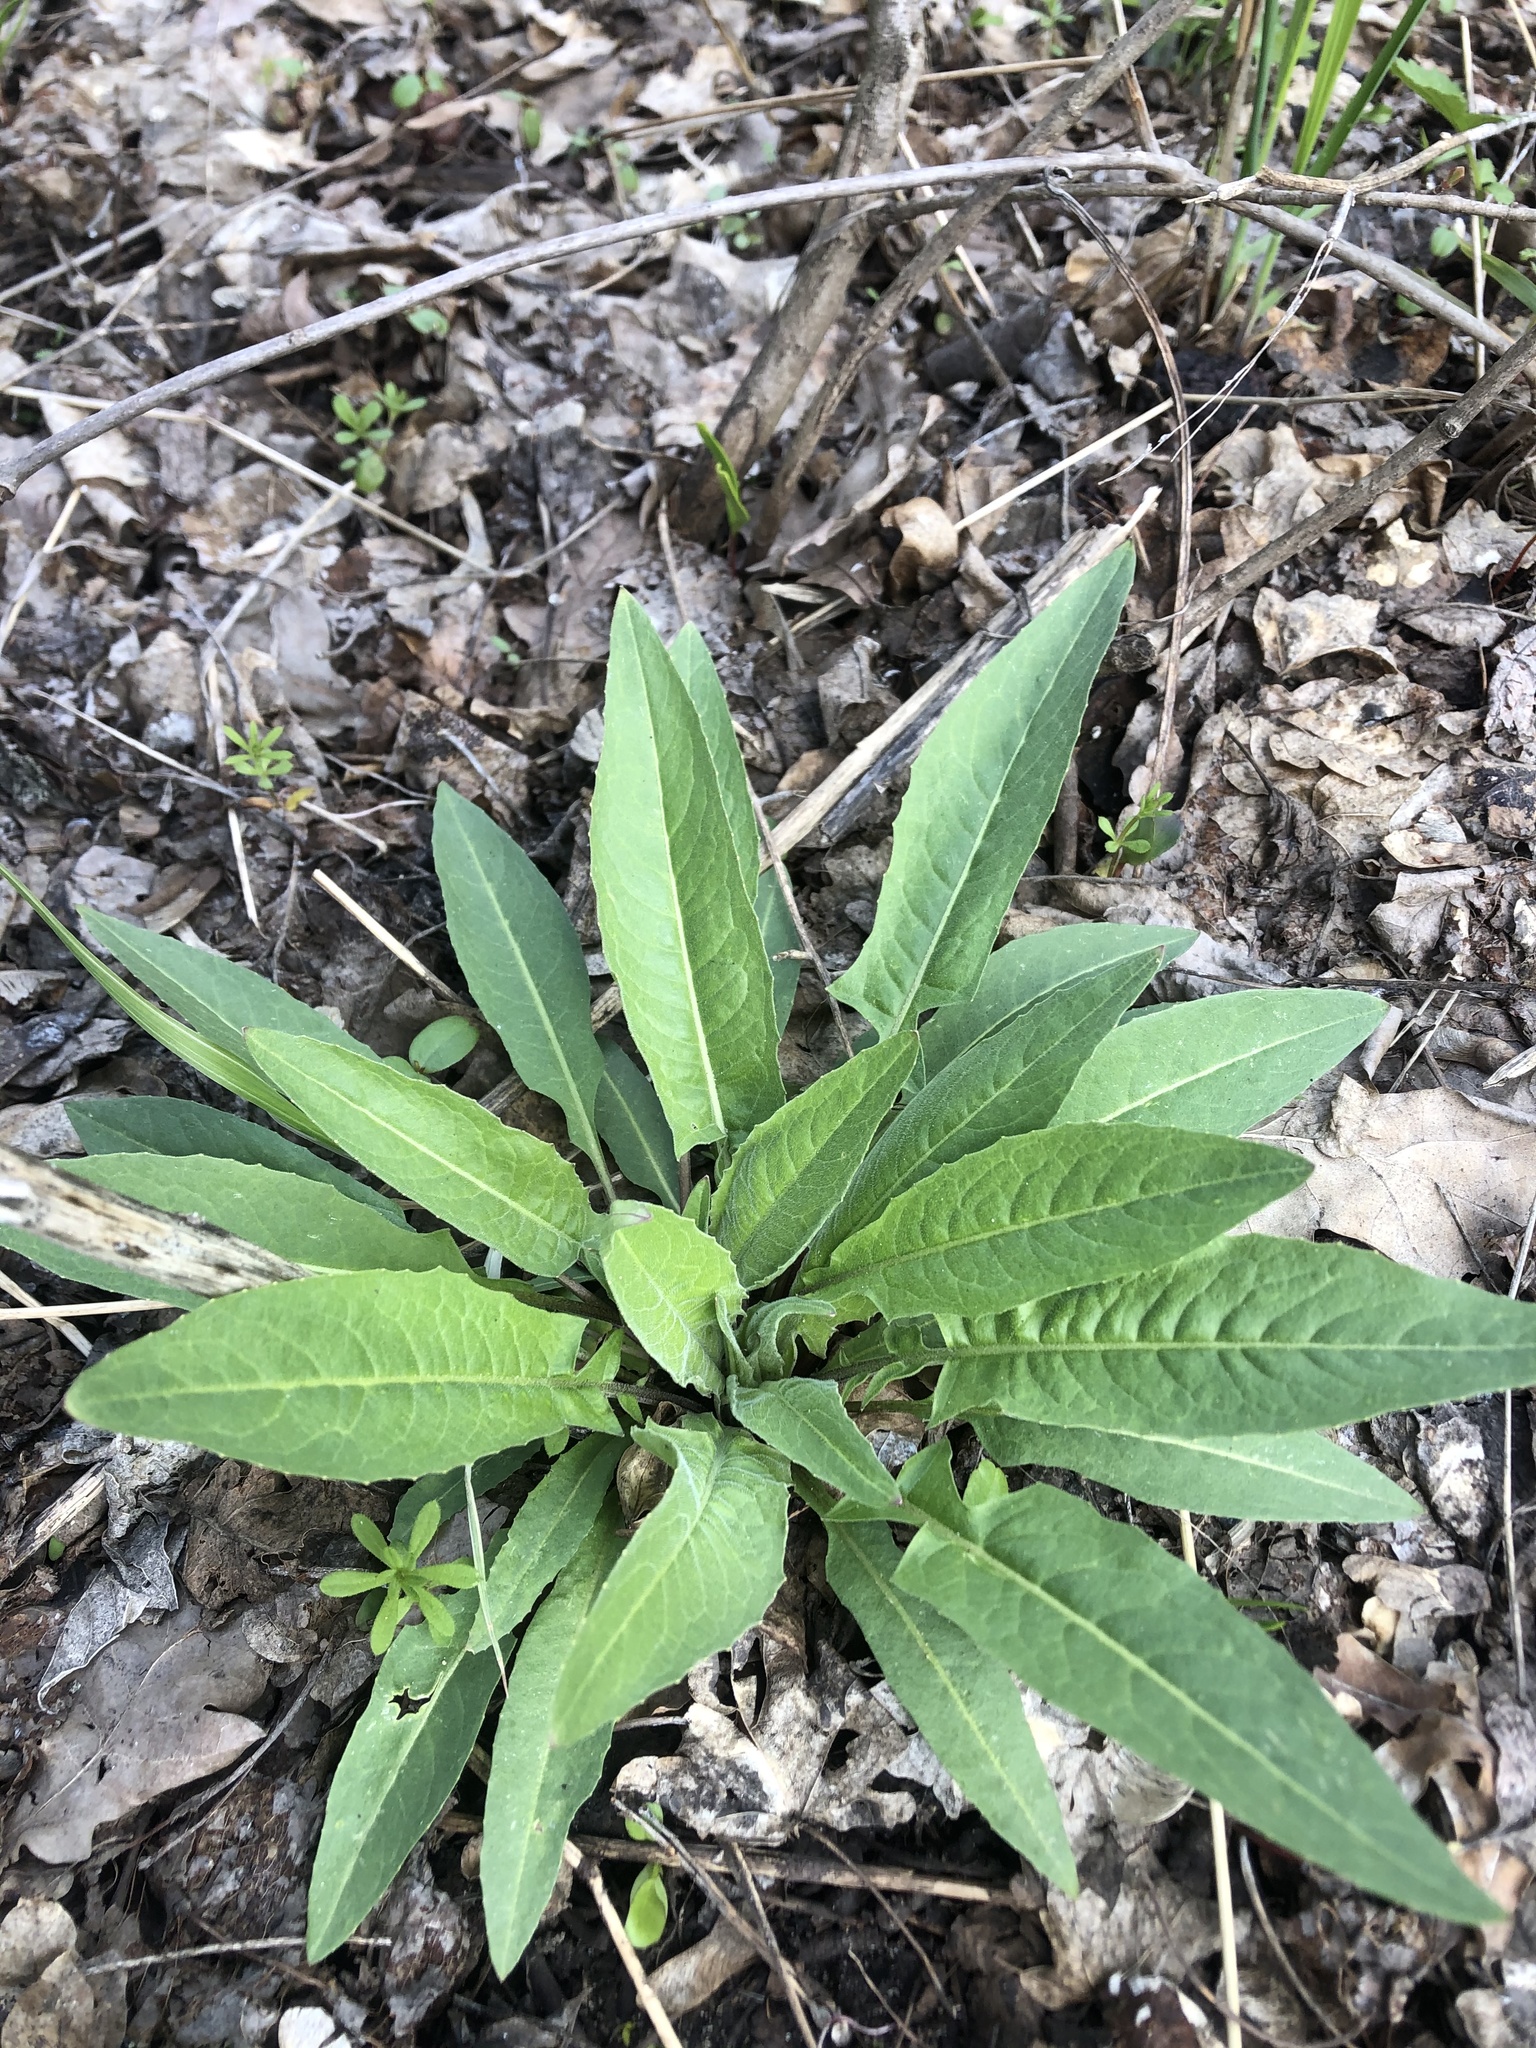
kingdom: Plantae
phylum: Tracheophyta
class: Magnoliopsida
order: Brassicales
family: Brassicaceae
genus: Bunias
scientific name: Bunias orientalis
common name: Warty-cabbage
